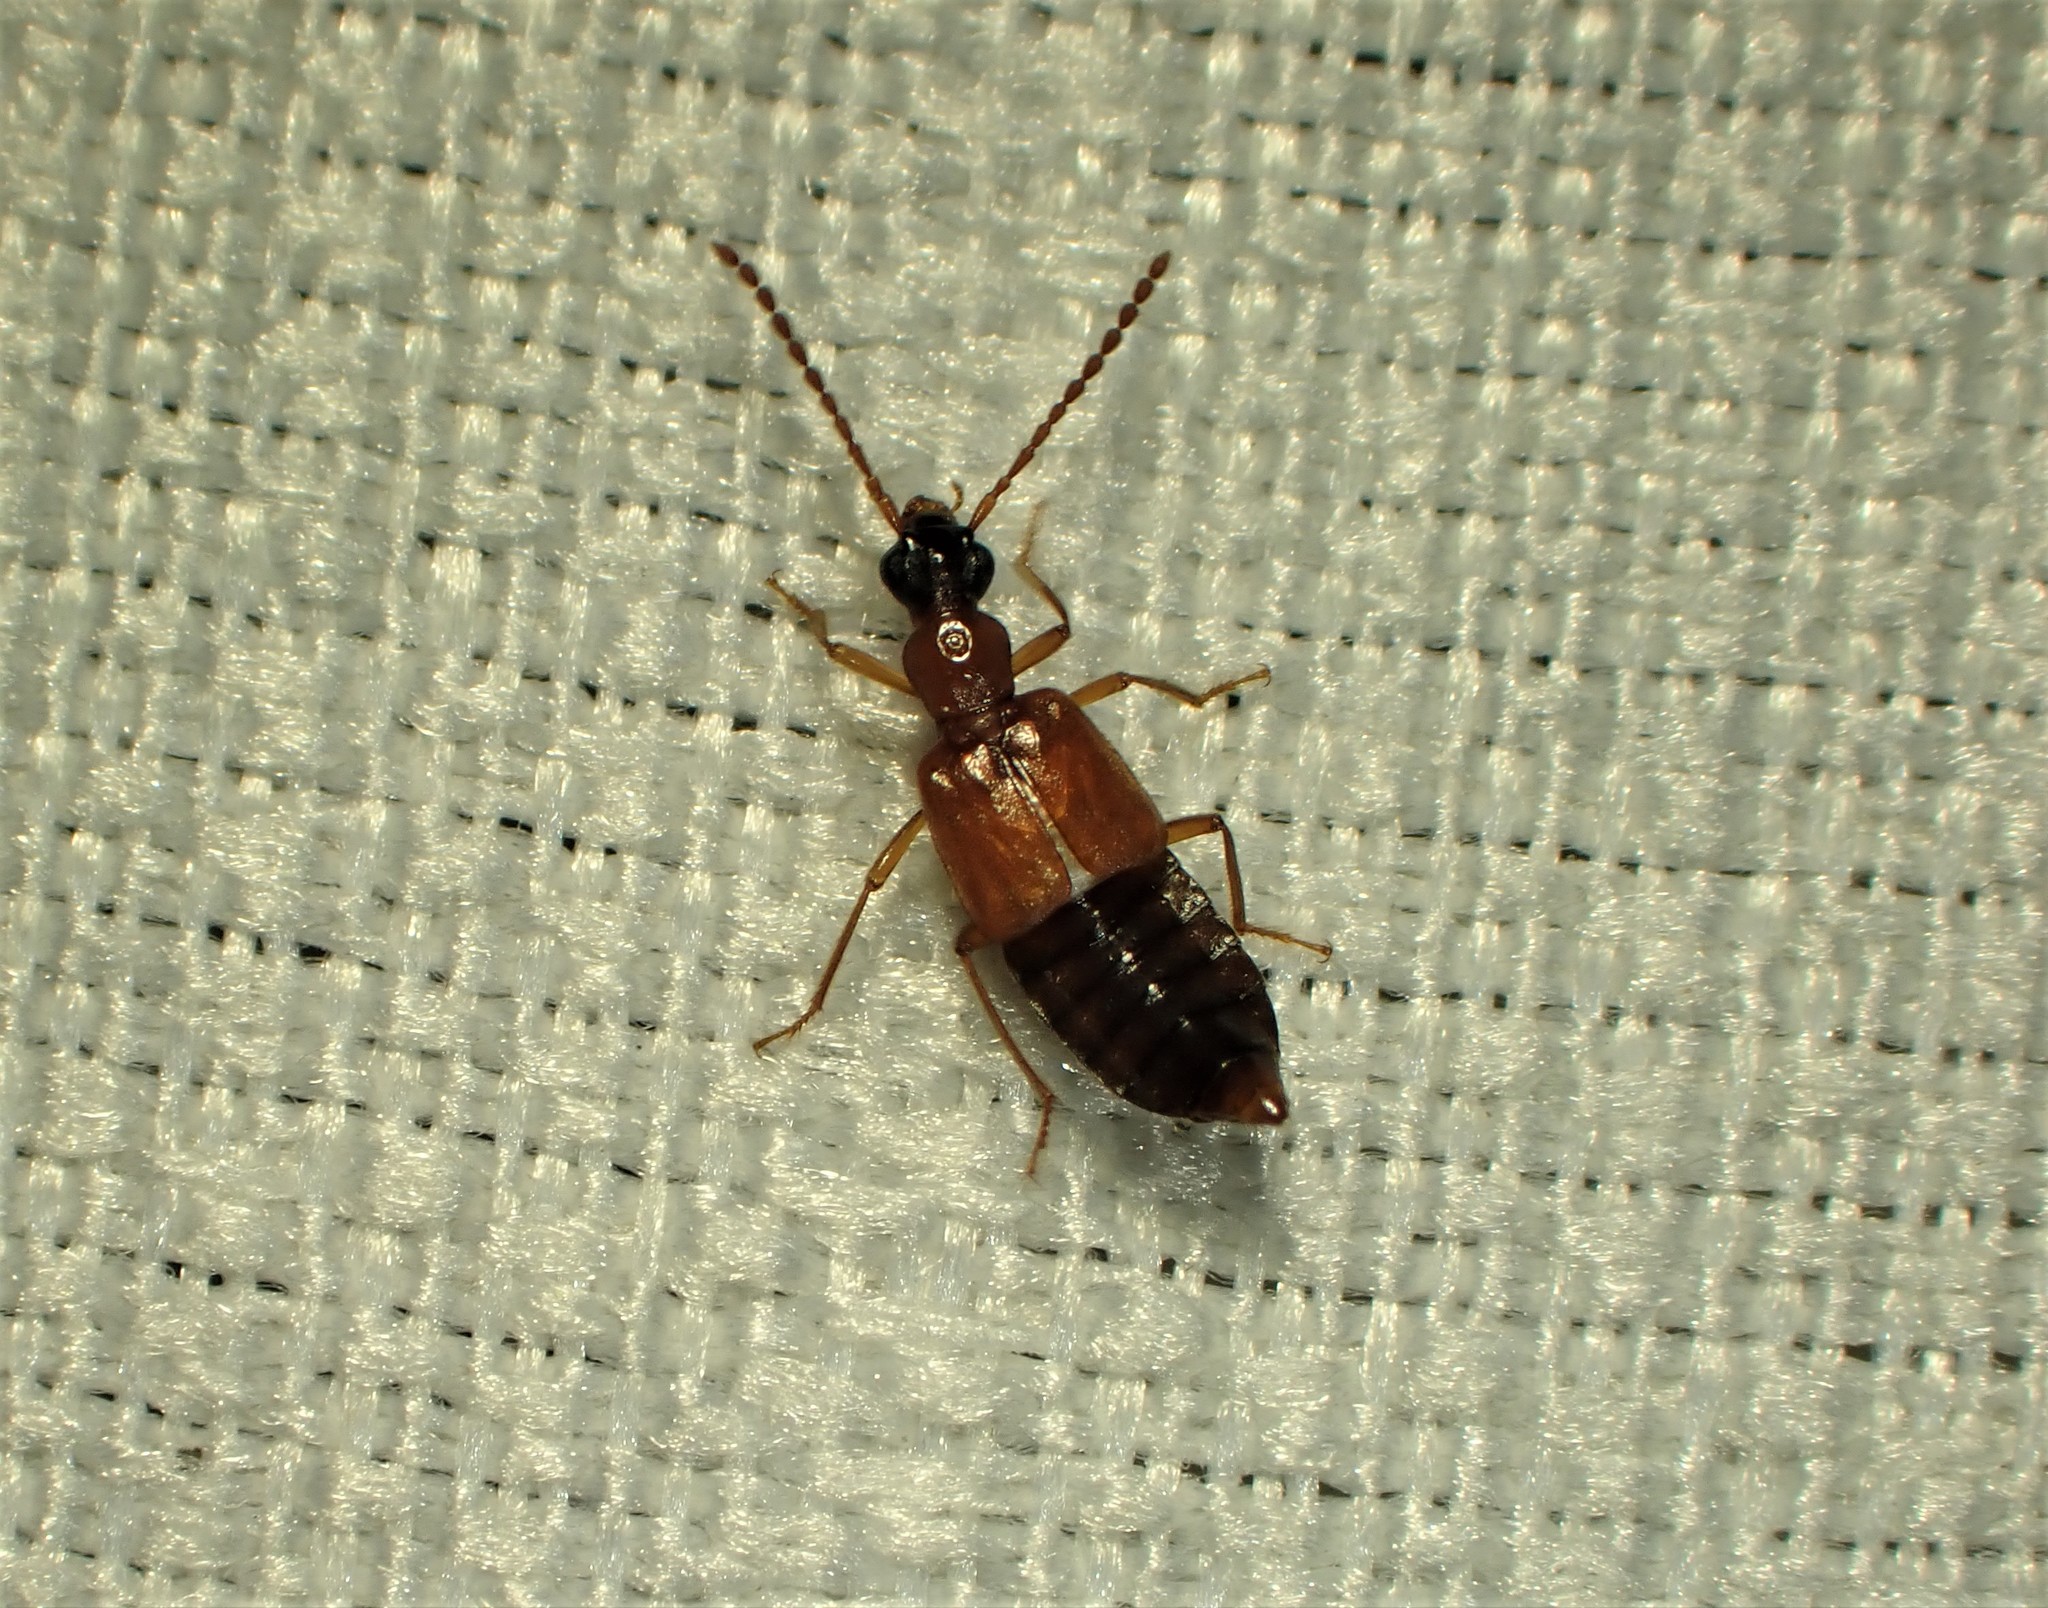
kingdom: Animalia
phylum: Arthropoda
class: Insecta
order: Coleoptera
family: Staphylinidae
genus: Deleaster
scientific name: Deleaster dichrous
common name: Rove beetle
